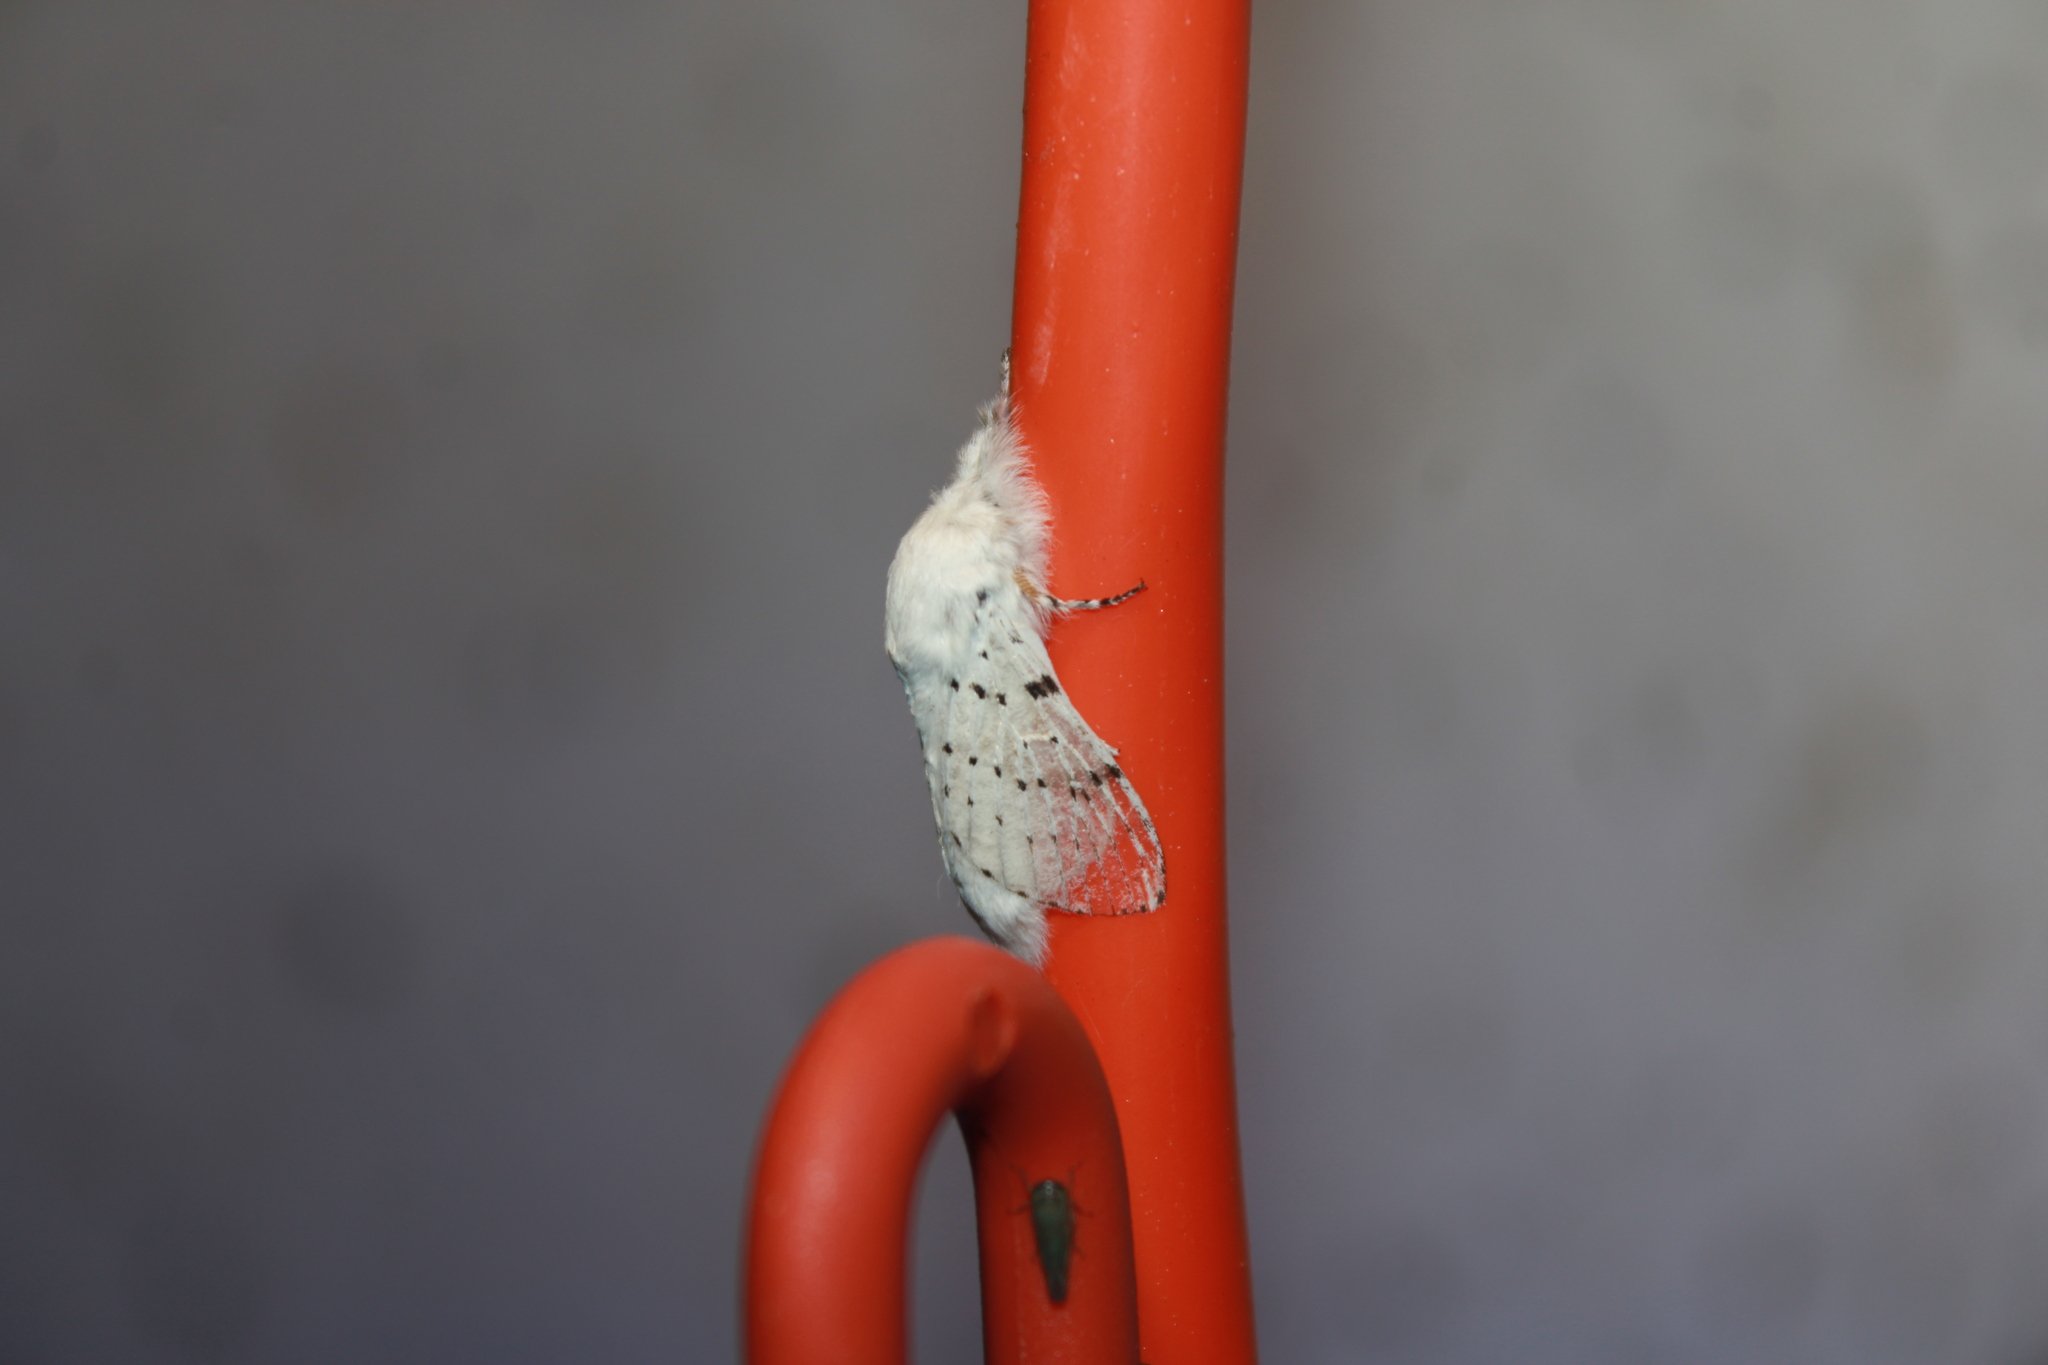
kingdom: Animalia
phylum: Arthropoda
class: Insecta
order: Lepidoptera
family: Lasiocampidae
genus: Artace
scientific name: Artace cribrarius
